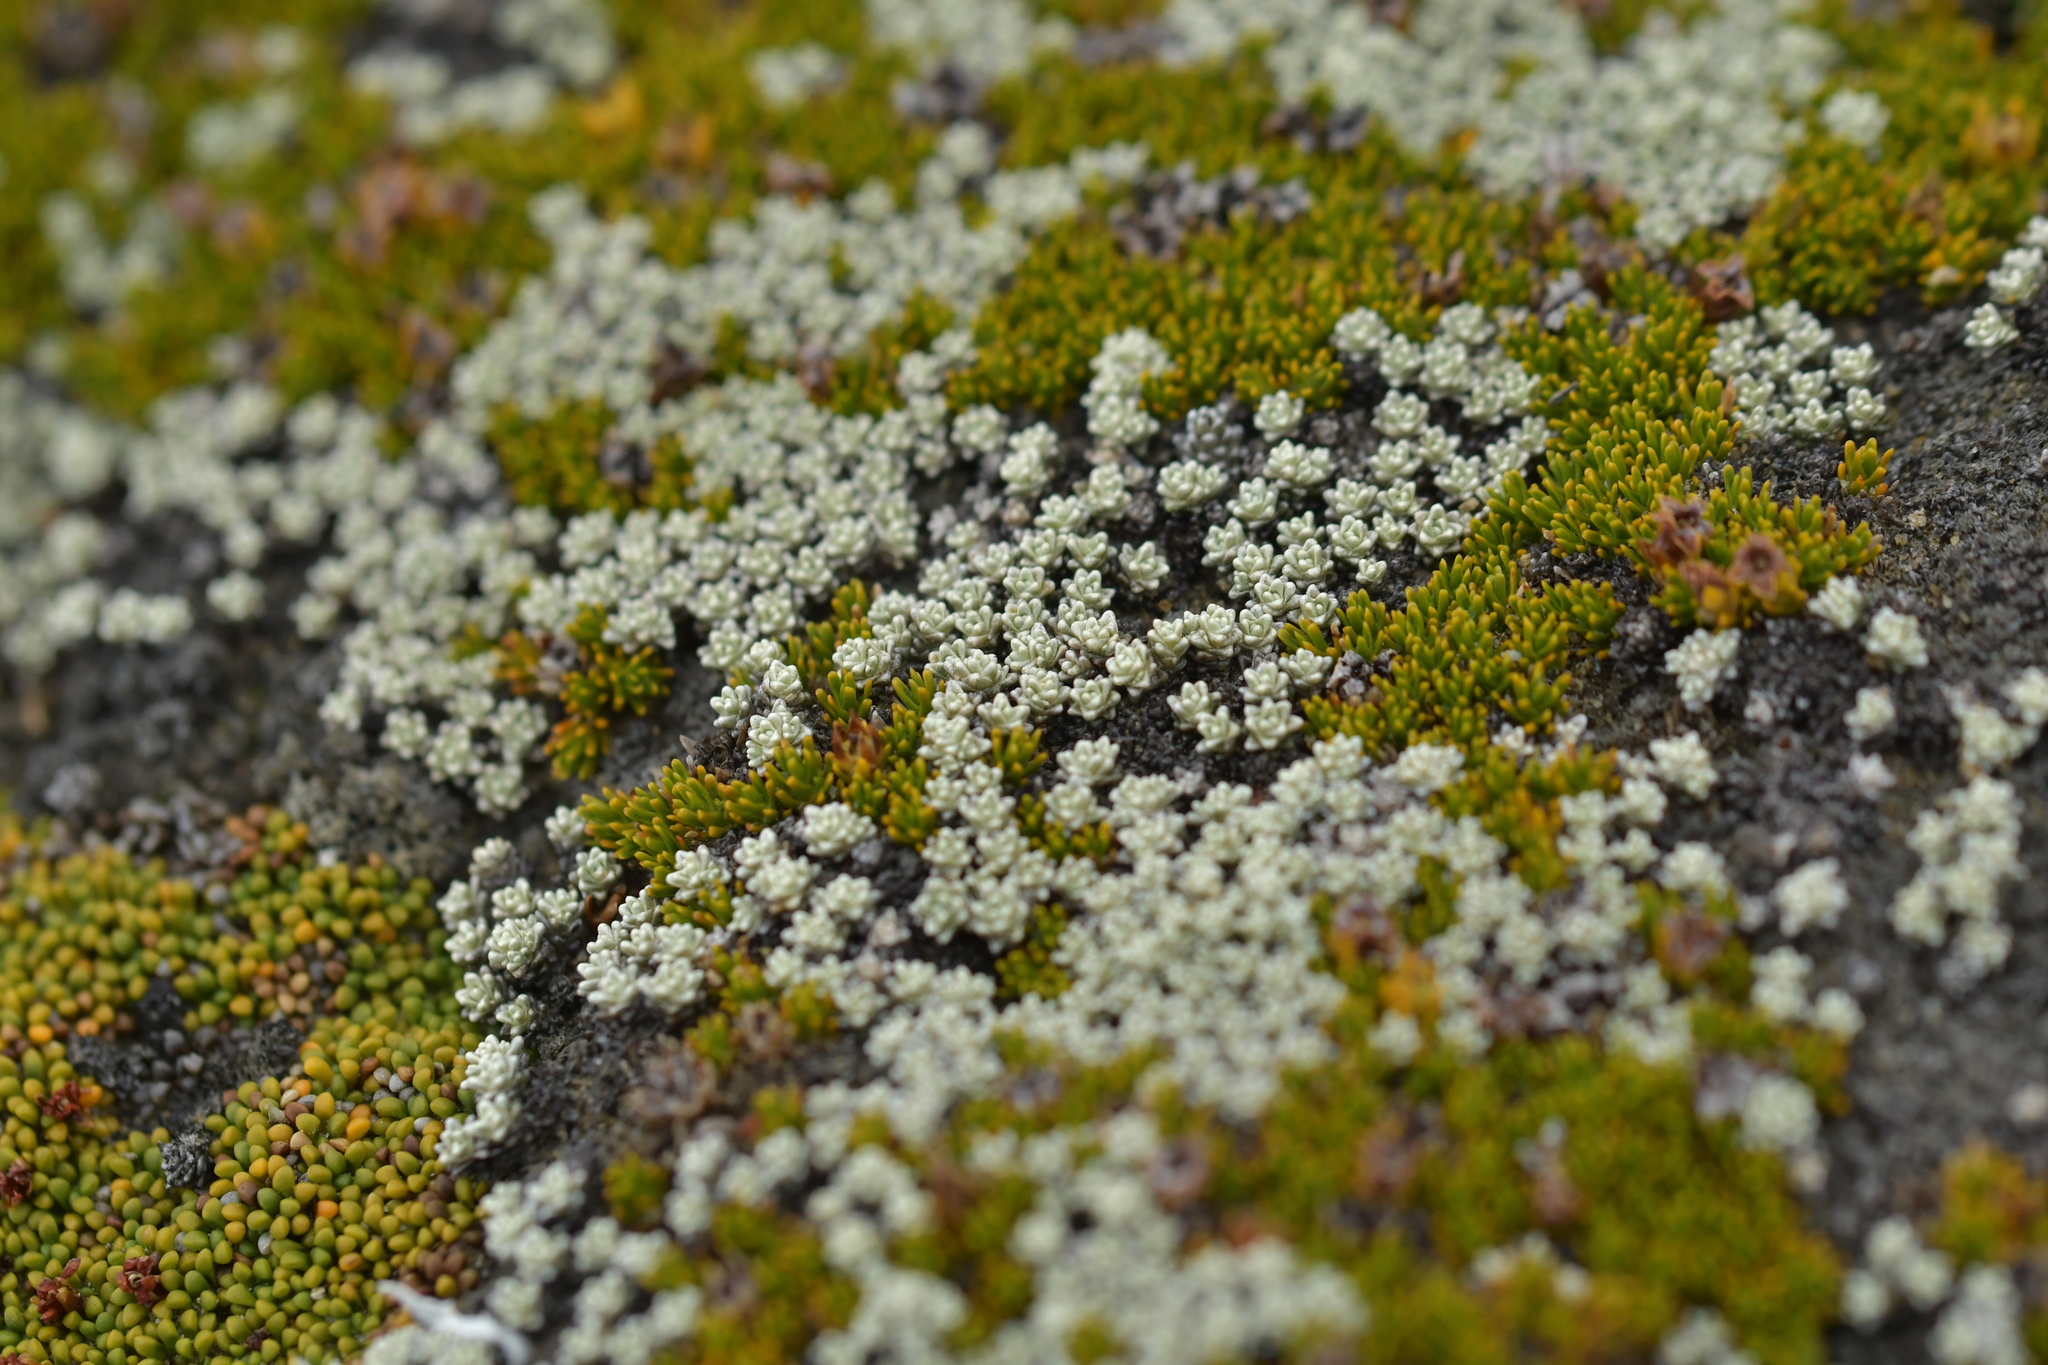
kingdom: Plantae
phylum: Tracheophyta
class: Magnoliopsida
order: Asterales
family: Asteraceae
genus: Raoulia
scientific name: Raoulia hectorii
